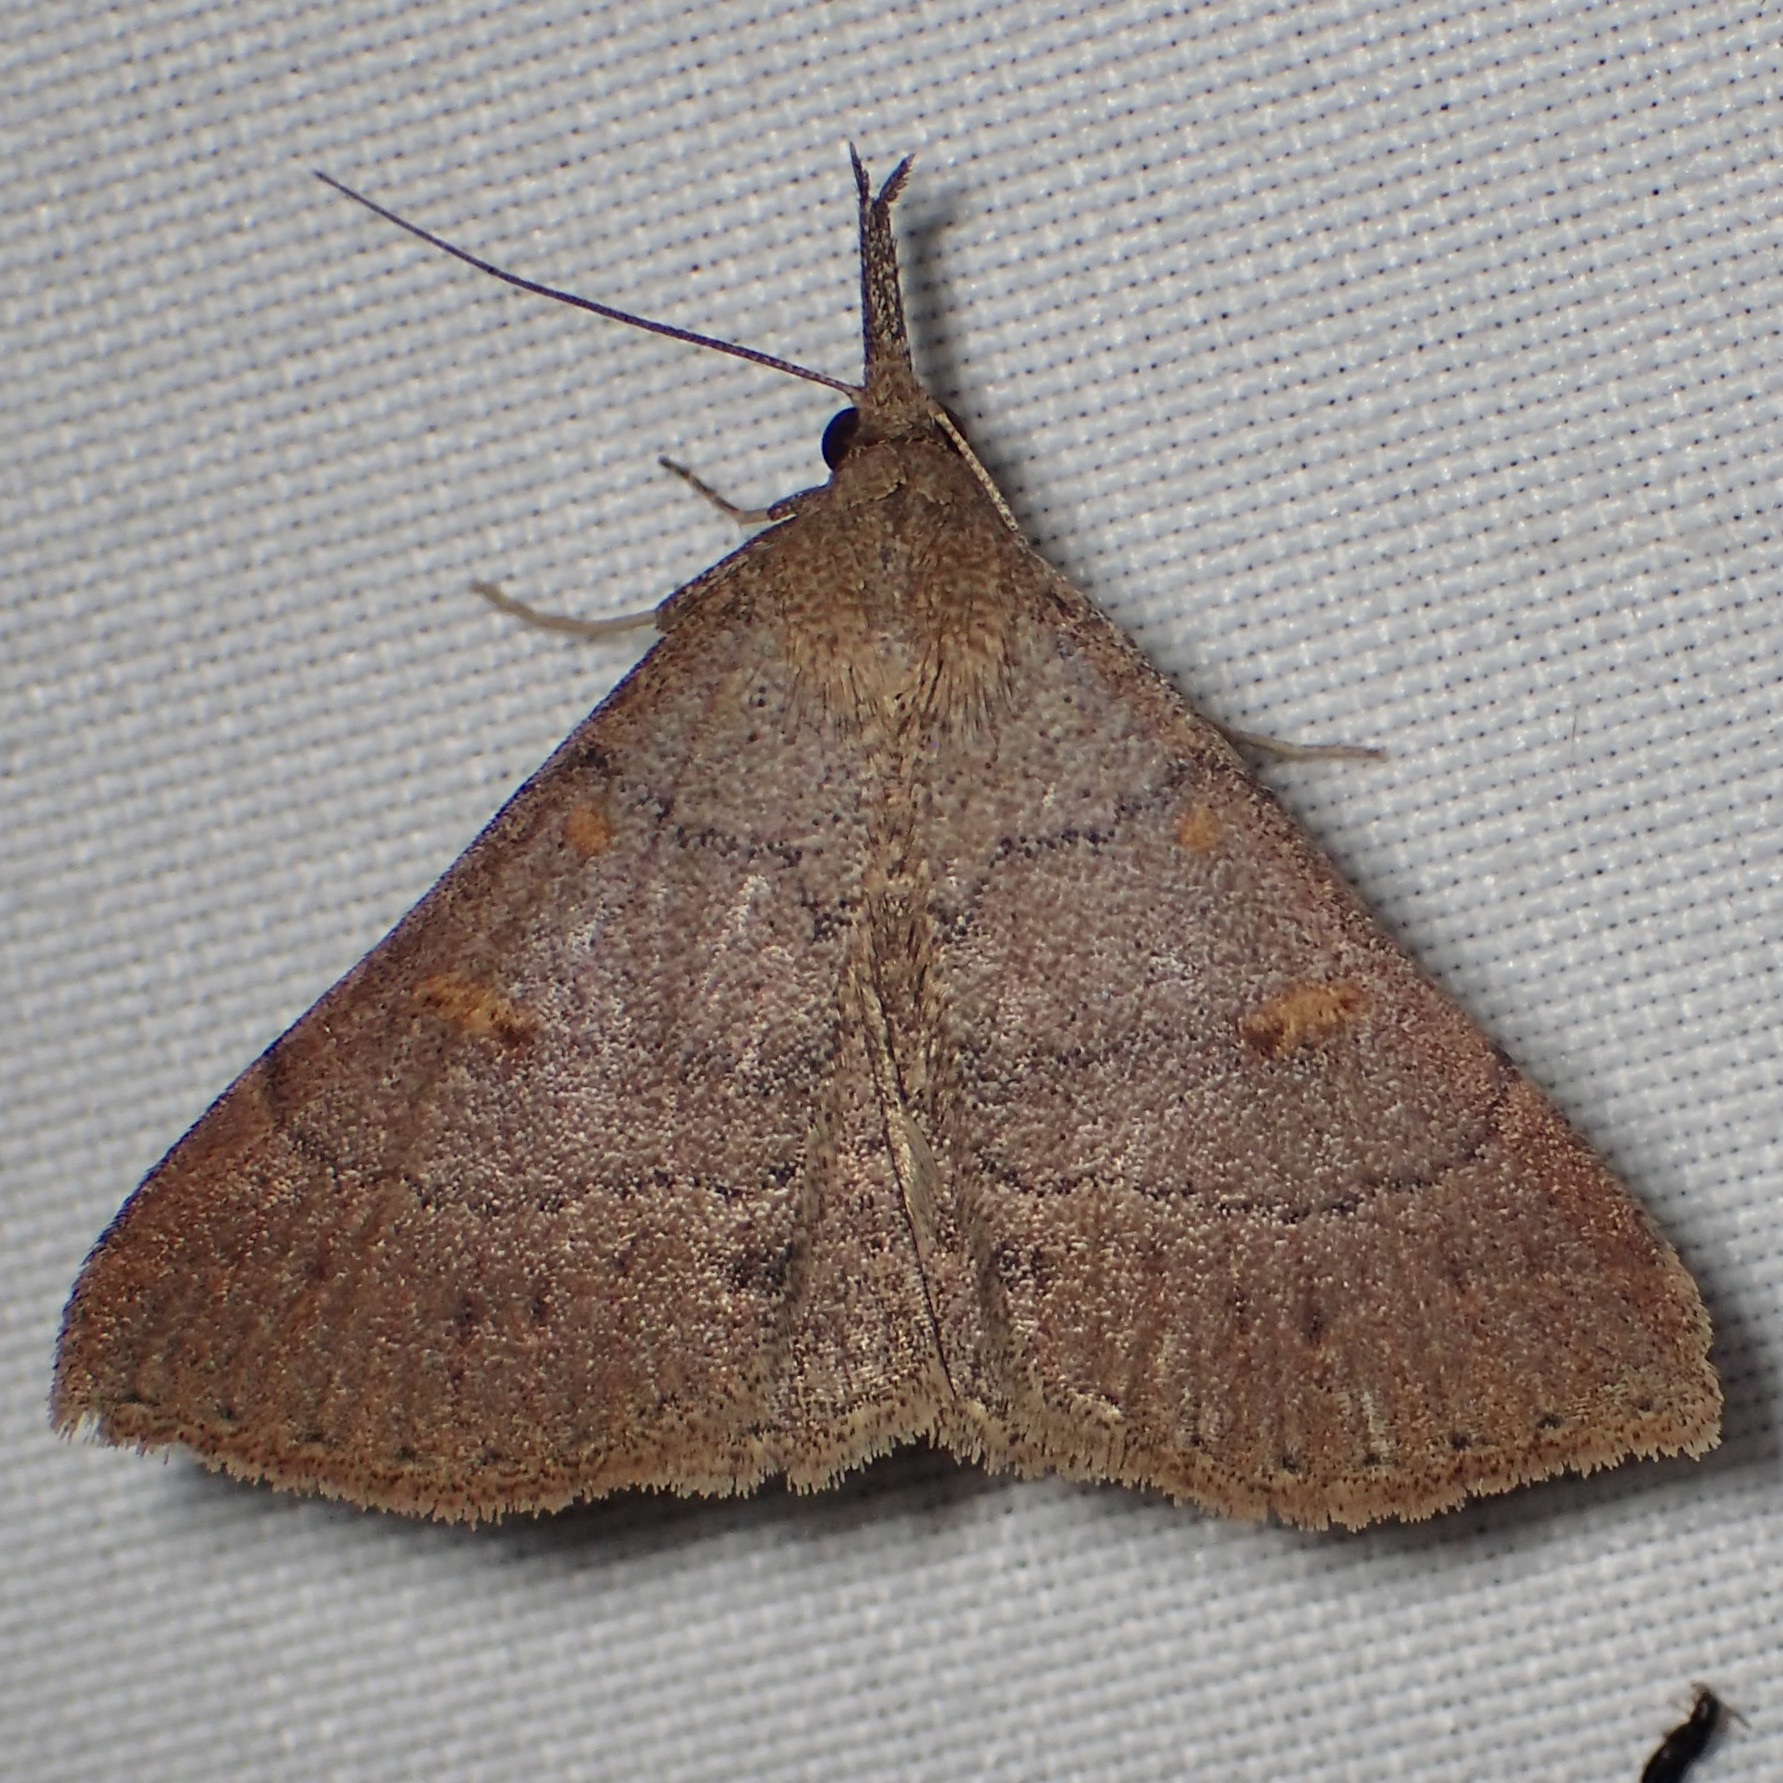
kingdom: Animalia
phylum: Arthropoda
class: Insecta
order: Lepidoptera
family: Erebidae
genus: Renia
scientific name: Renia hutsoni
